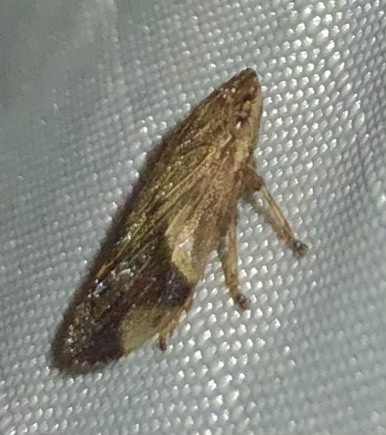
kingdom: Animalia
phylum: Arthropoda
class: Insecta
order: Hemiptera
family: Aphrophoridae
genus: Aphrophora
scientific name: Aphrophora quadrinotata
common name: Four-spotted spittlebug
